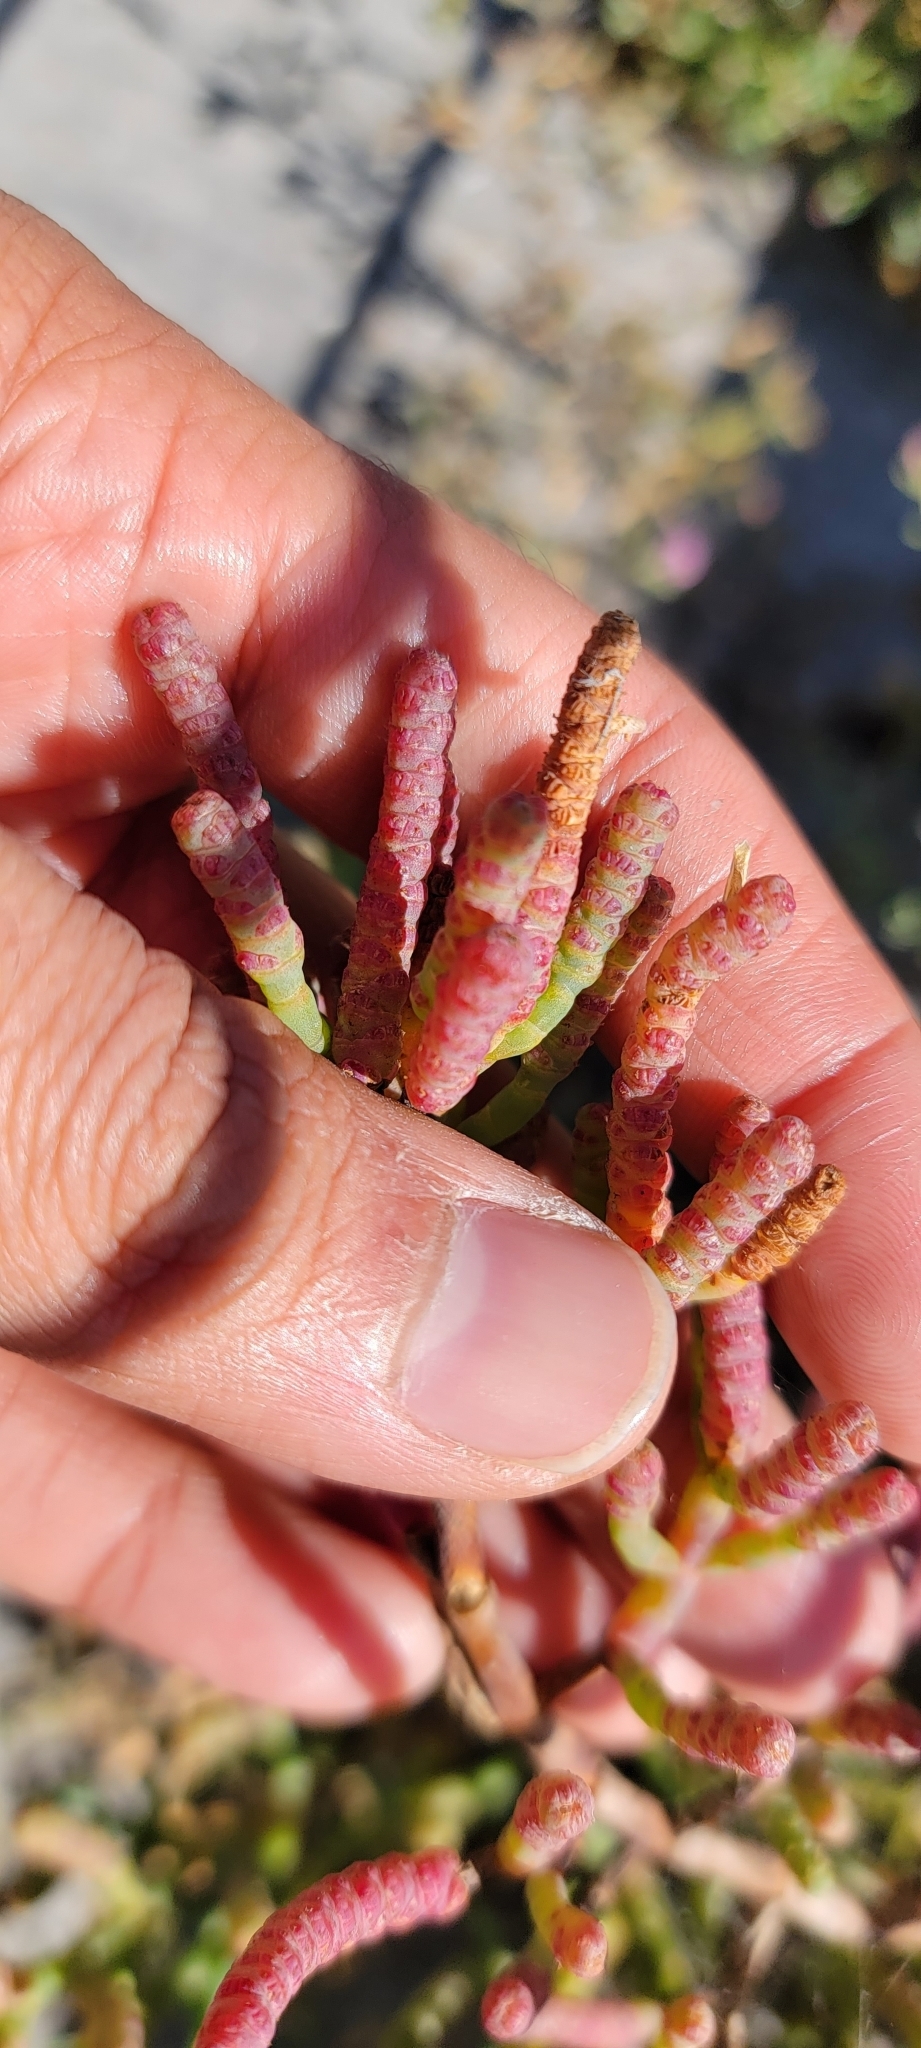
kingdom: Plantae
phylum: Tracheophyta
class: Magnoliopsida
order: Caryophyllales
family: Amaranthaceae
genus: Salicornia
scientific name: Salicornia pacifica
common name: Pacific glasswort
